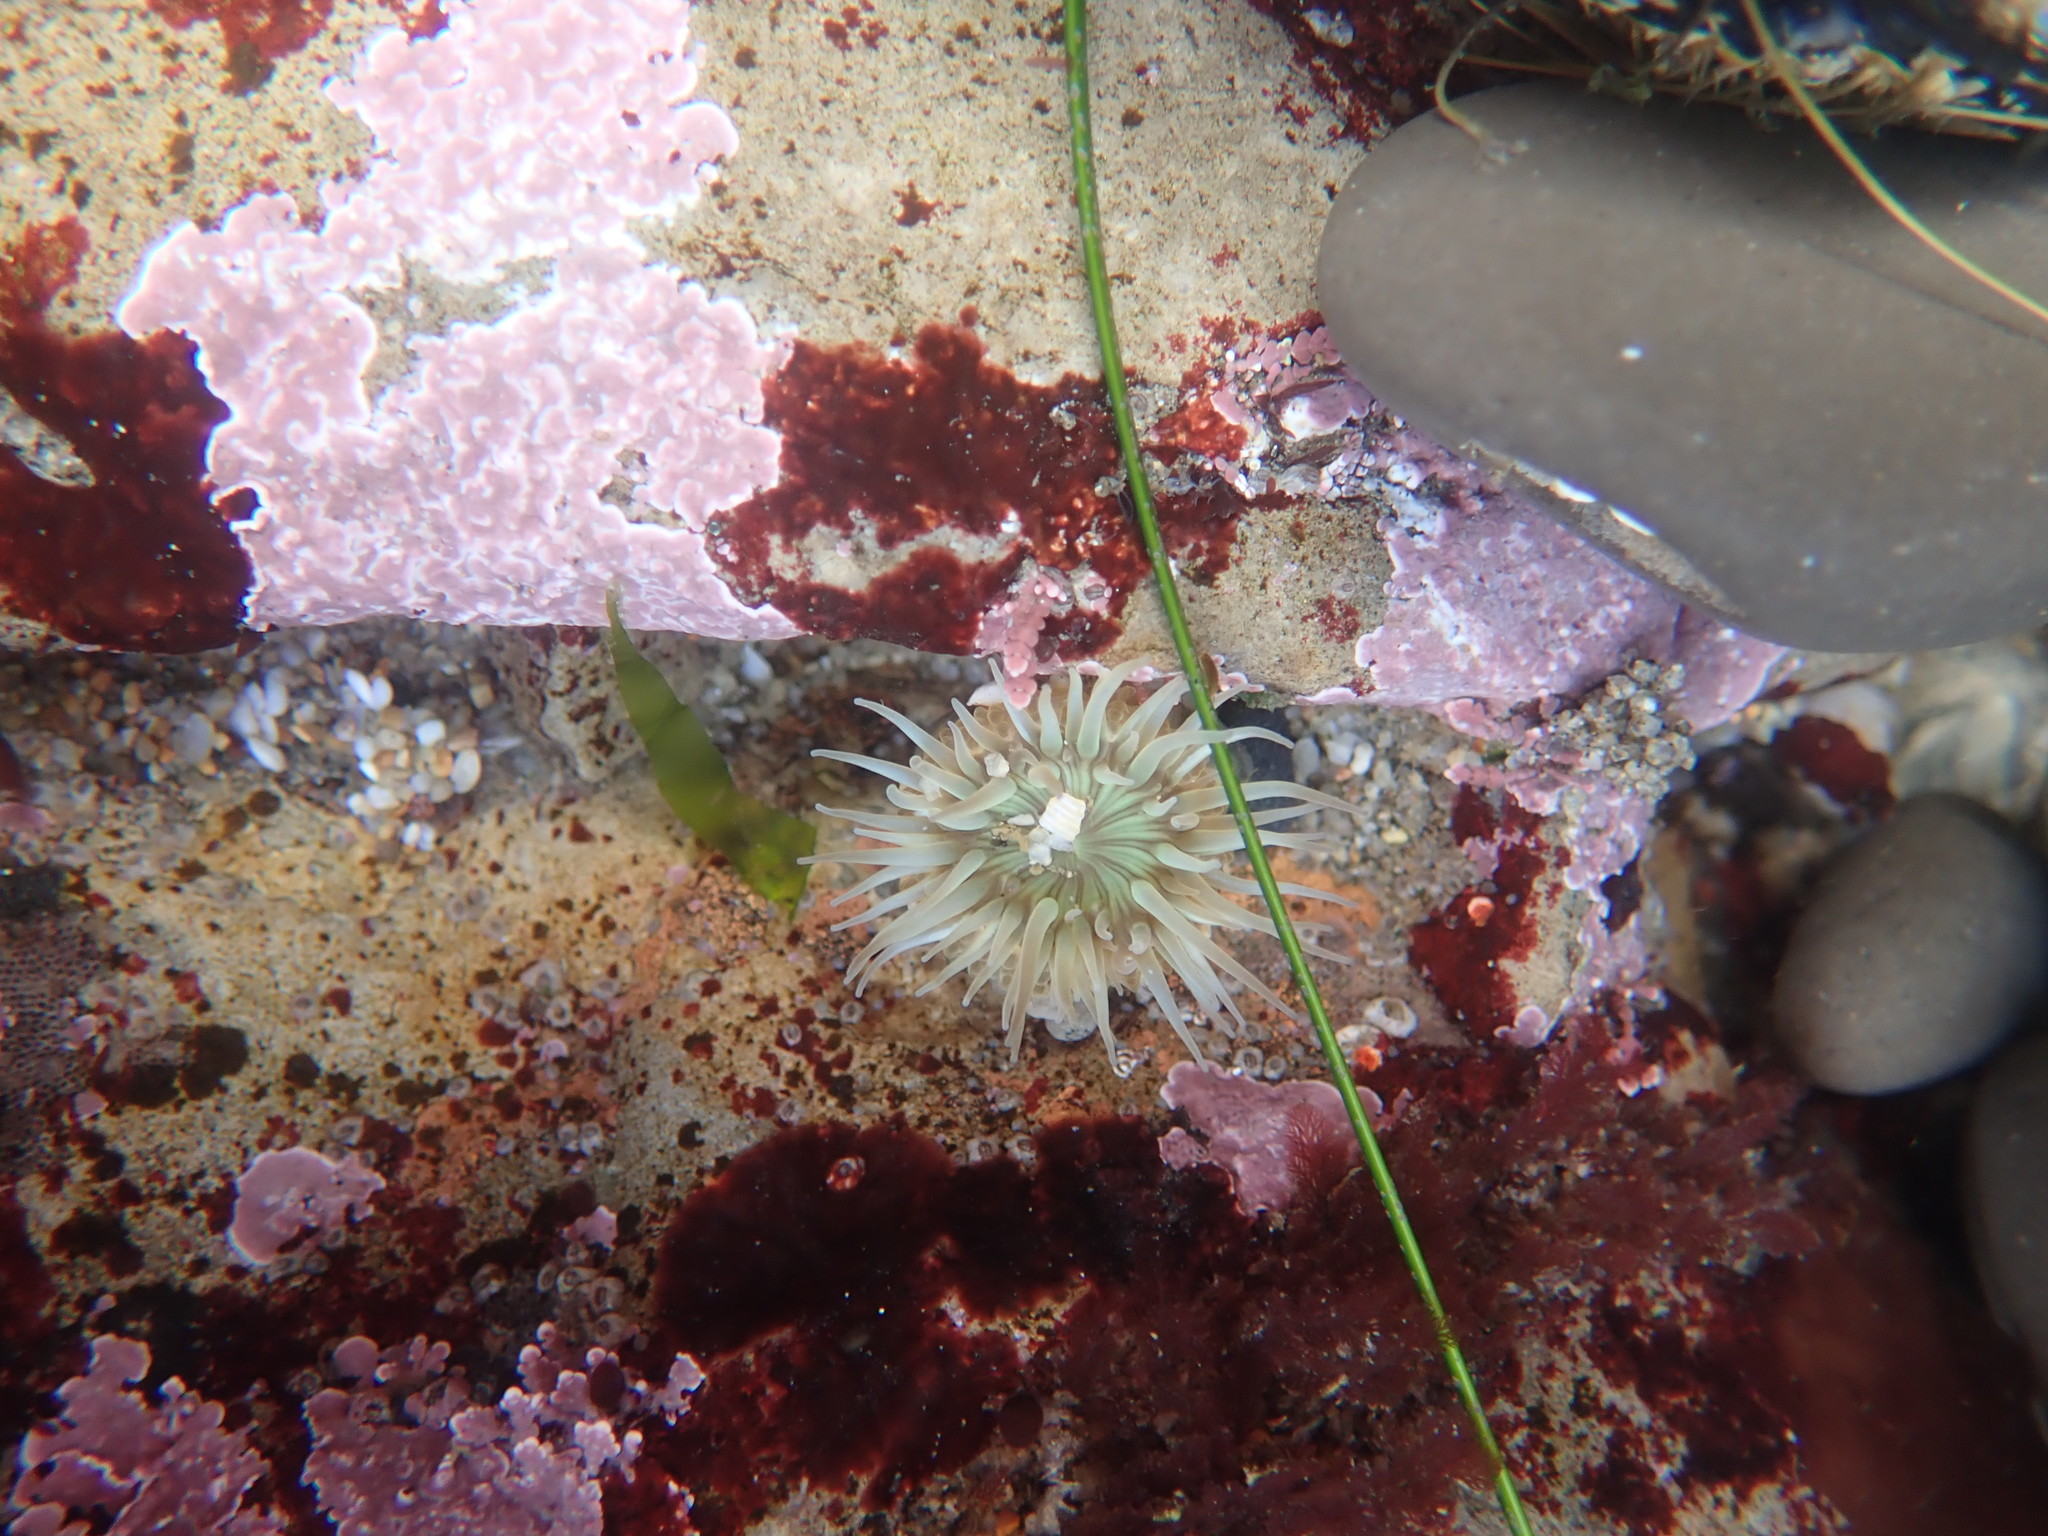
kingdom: Animalia
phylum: Cnidaria
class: Anthozoa
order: Actiniaria
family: Actiniidae
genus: Anthopleura
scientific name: Anthopleura sola
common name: Sun anemone
